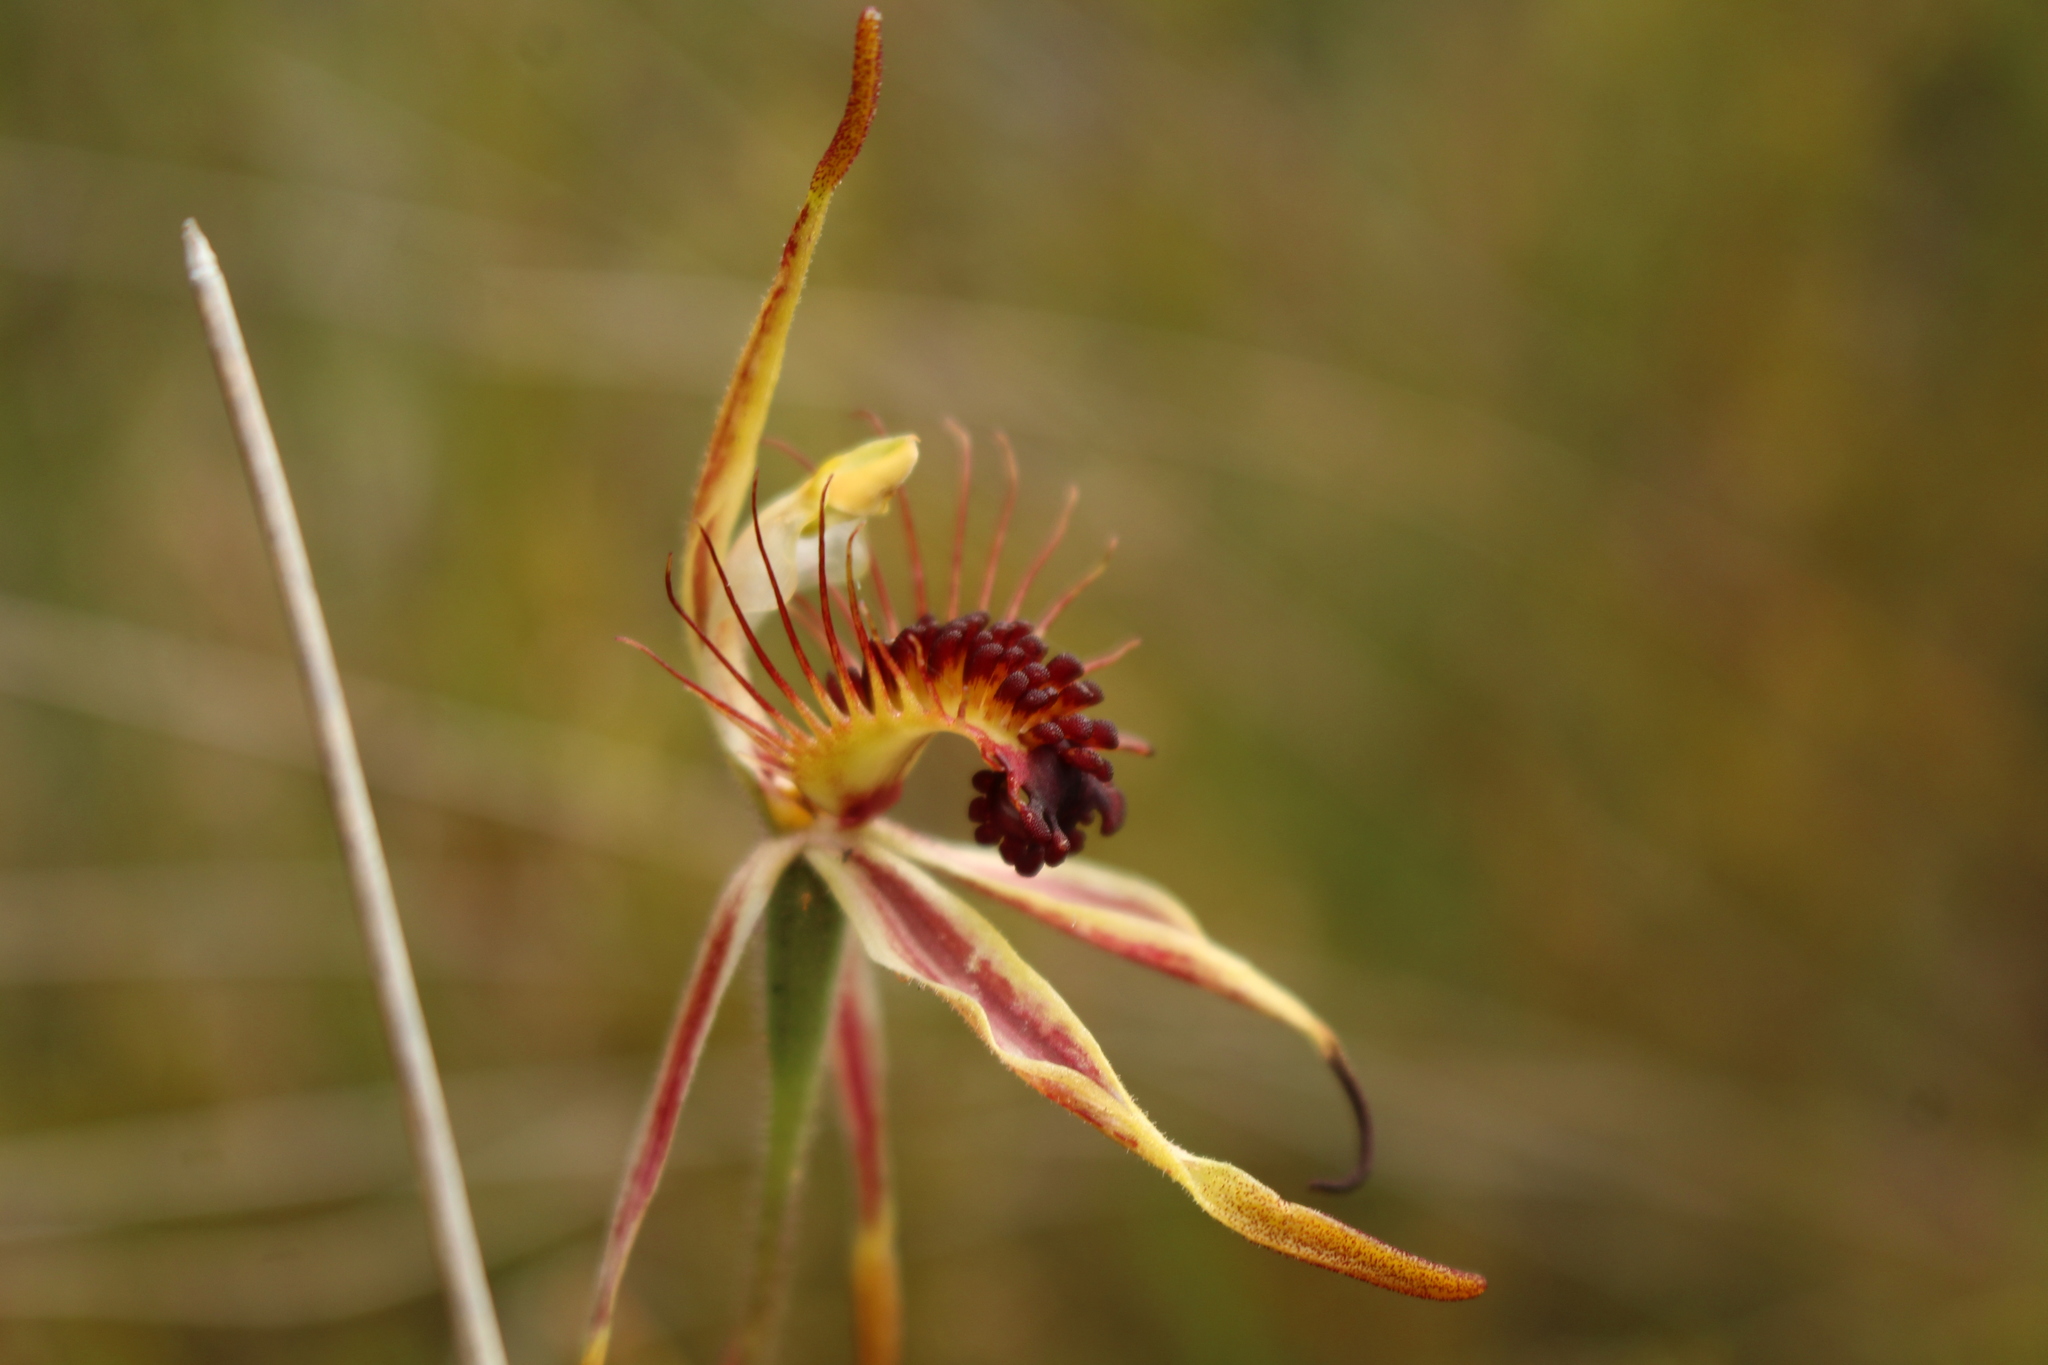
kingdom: Plantae
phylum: Tracheophyta
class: Liliopsida
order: Asparagales
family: Orchidaceae
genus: Caladenia
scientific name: Caladenia corynephora
